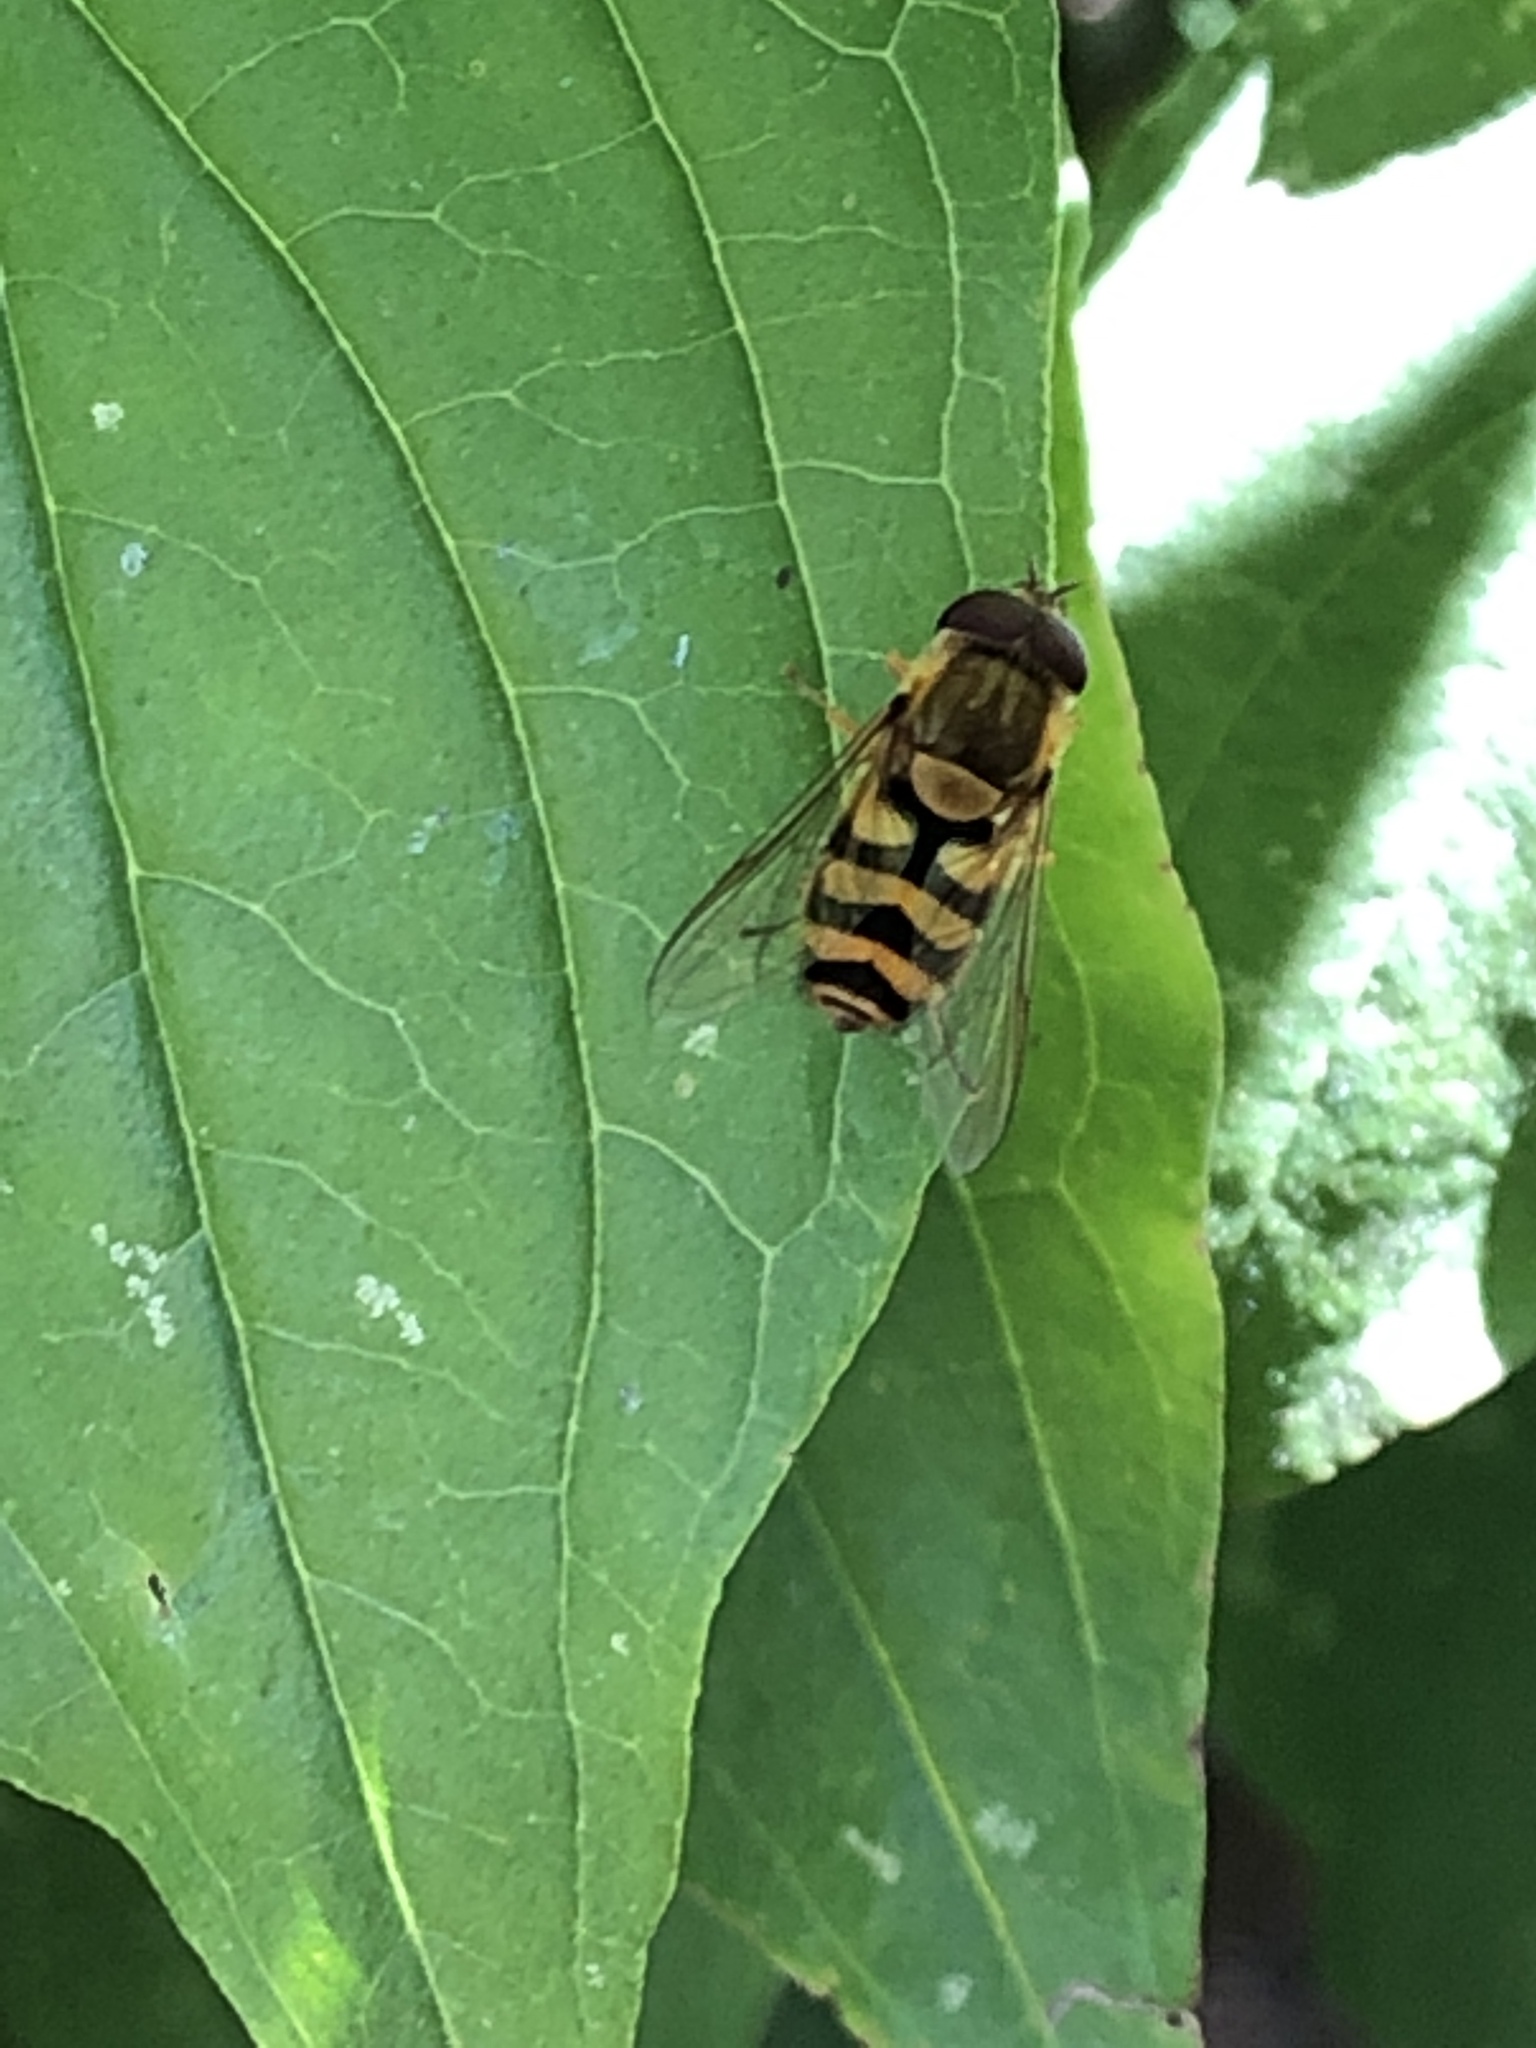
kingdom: Animalia
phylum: Arthropoda
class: Insecta
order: Diptera
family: Syrphidae
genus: Syrphus
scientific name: Syrphus
